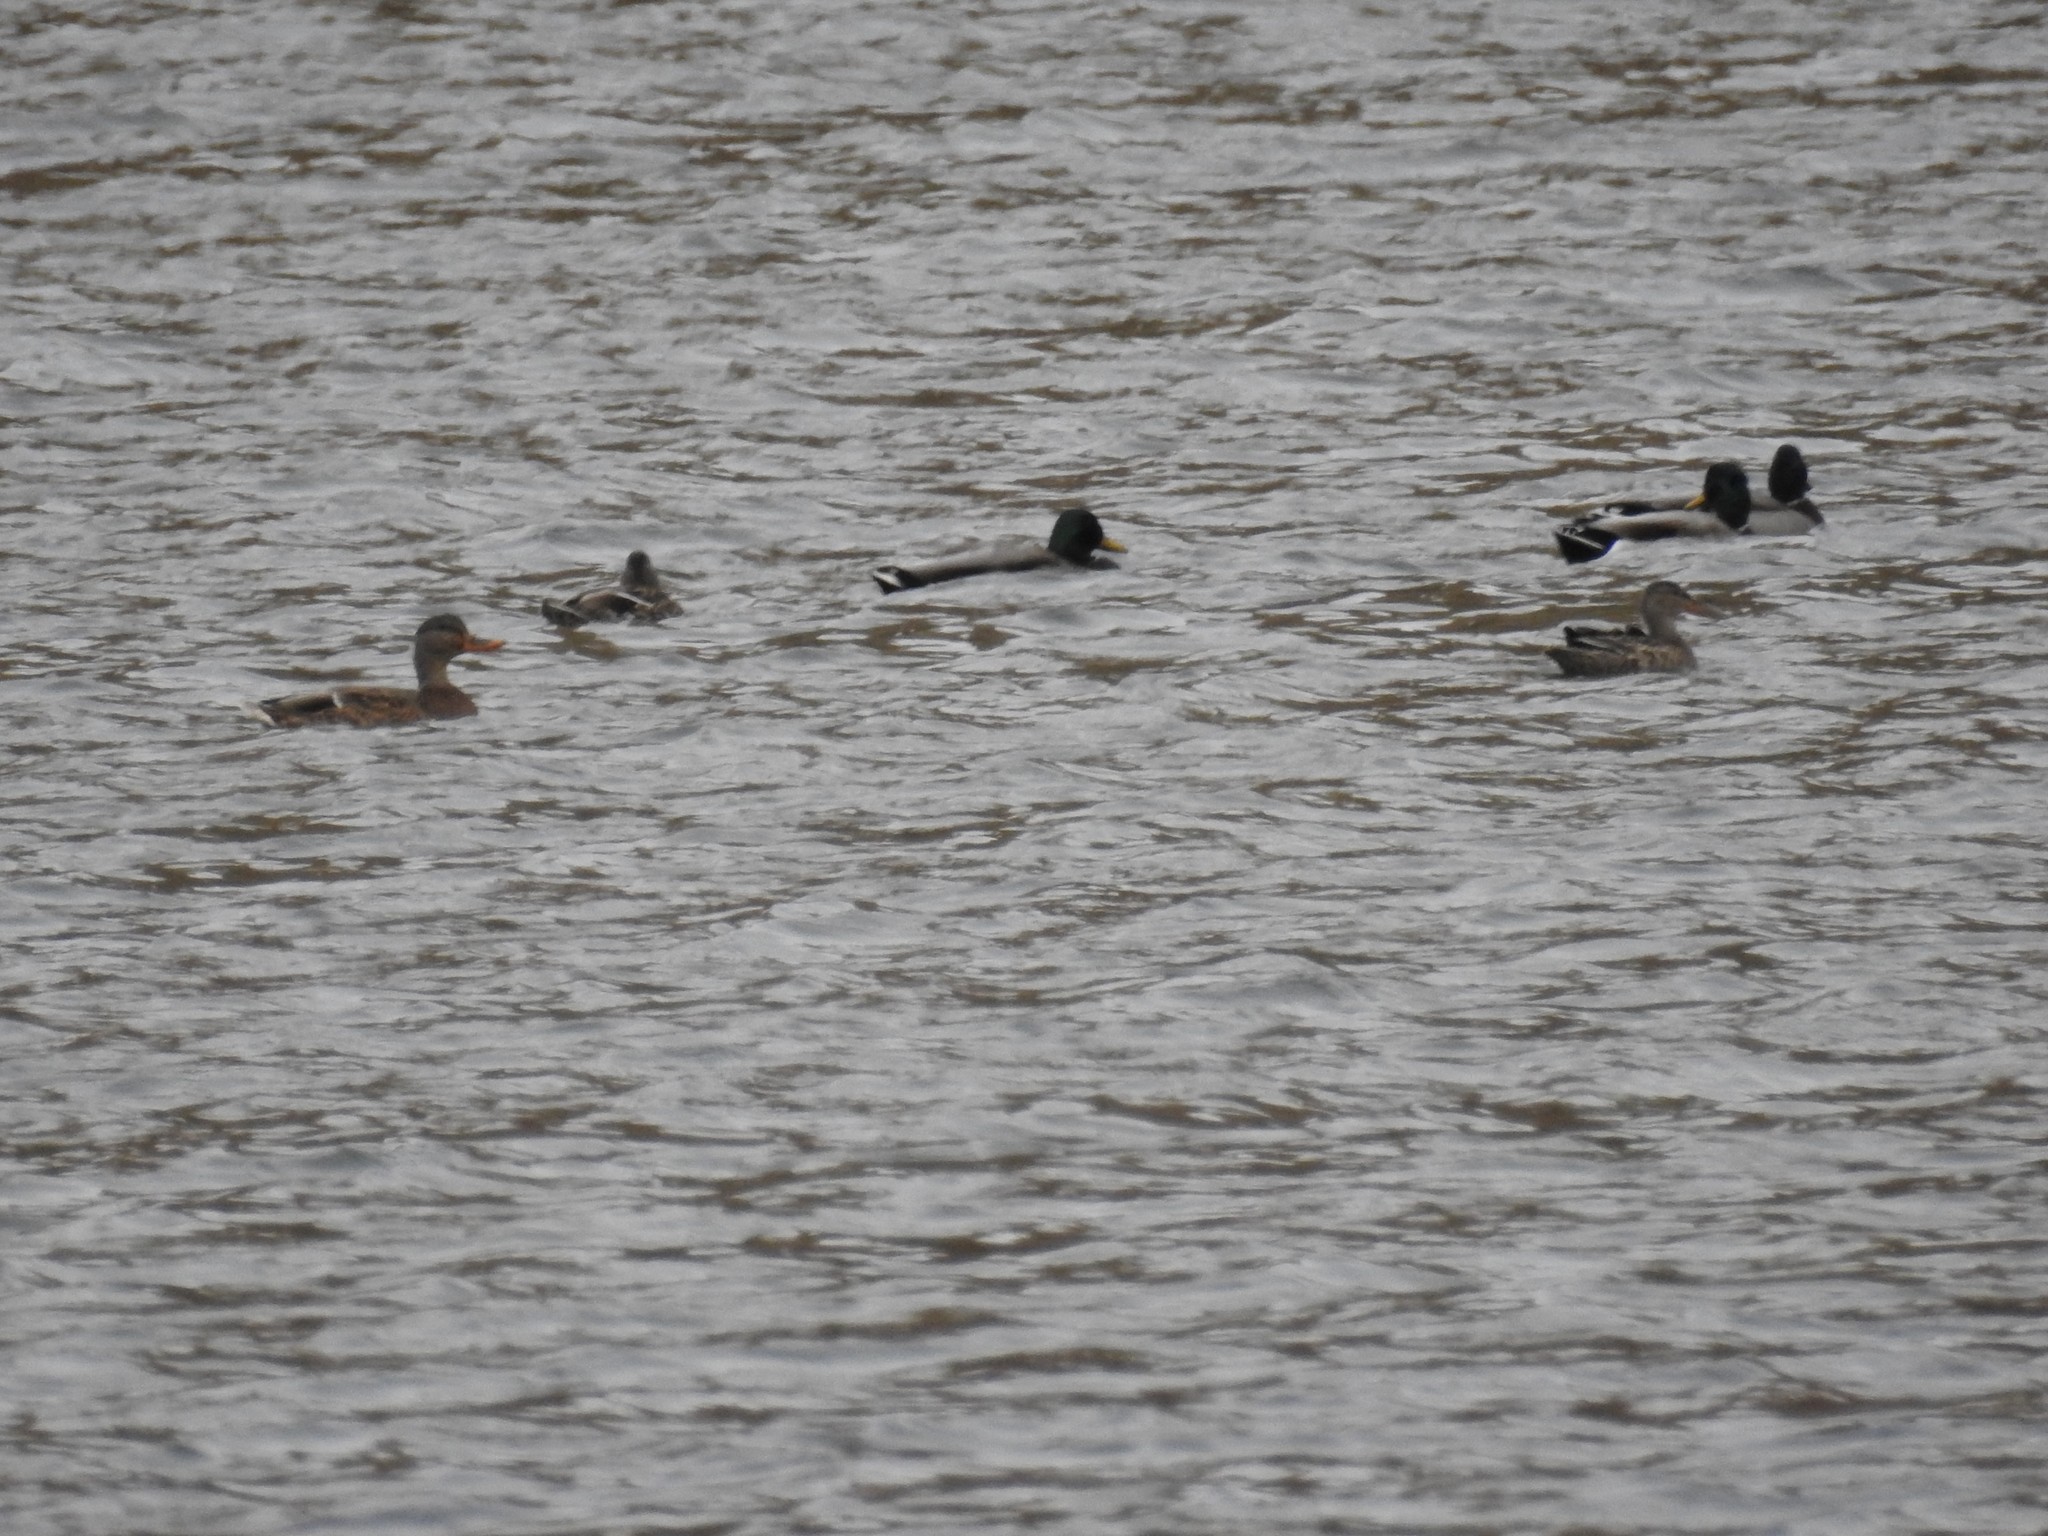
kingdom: Animalia
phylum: Chordata
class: Aves
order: Anseriformes
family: Anatidae
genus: Anas
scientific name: Anas platyrhynchos
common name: Mallard
